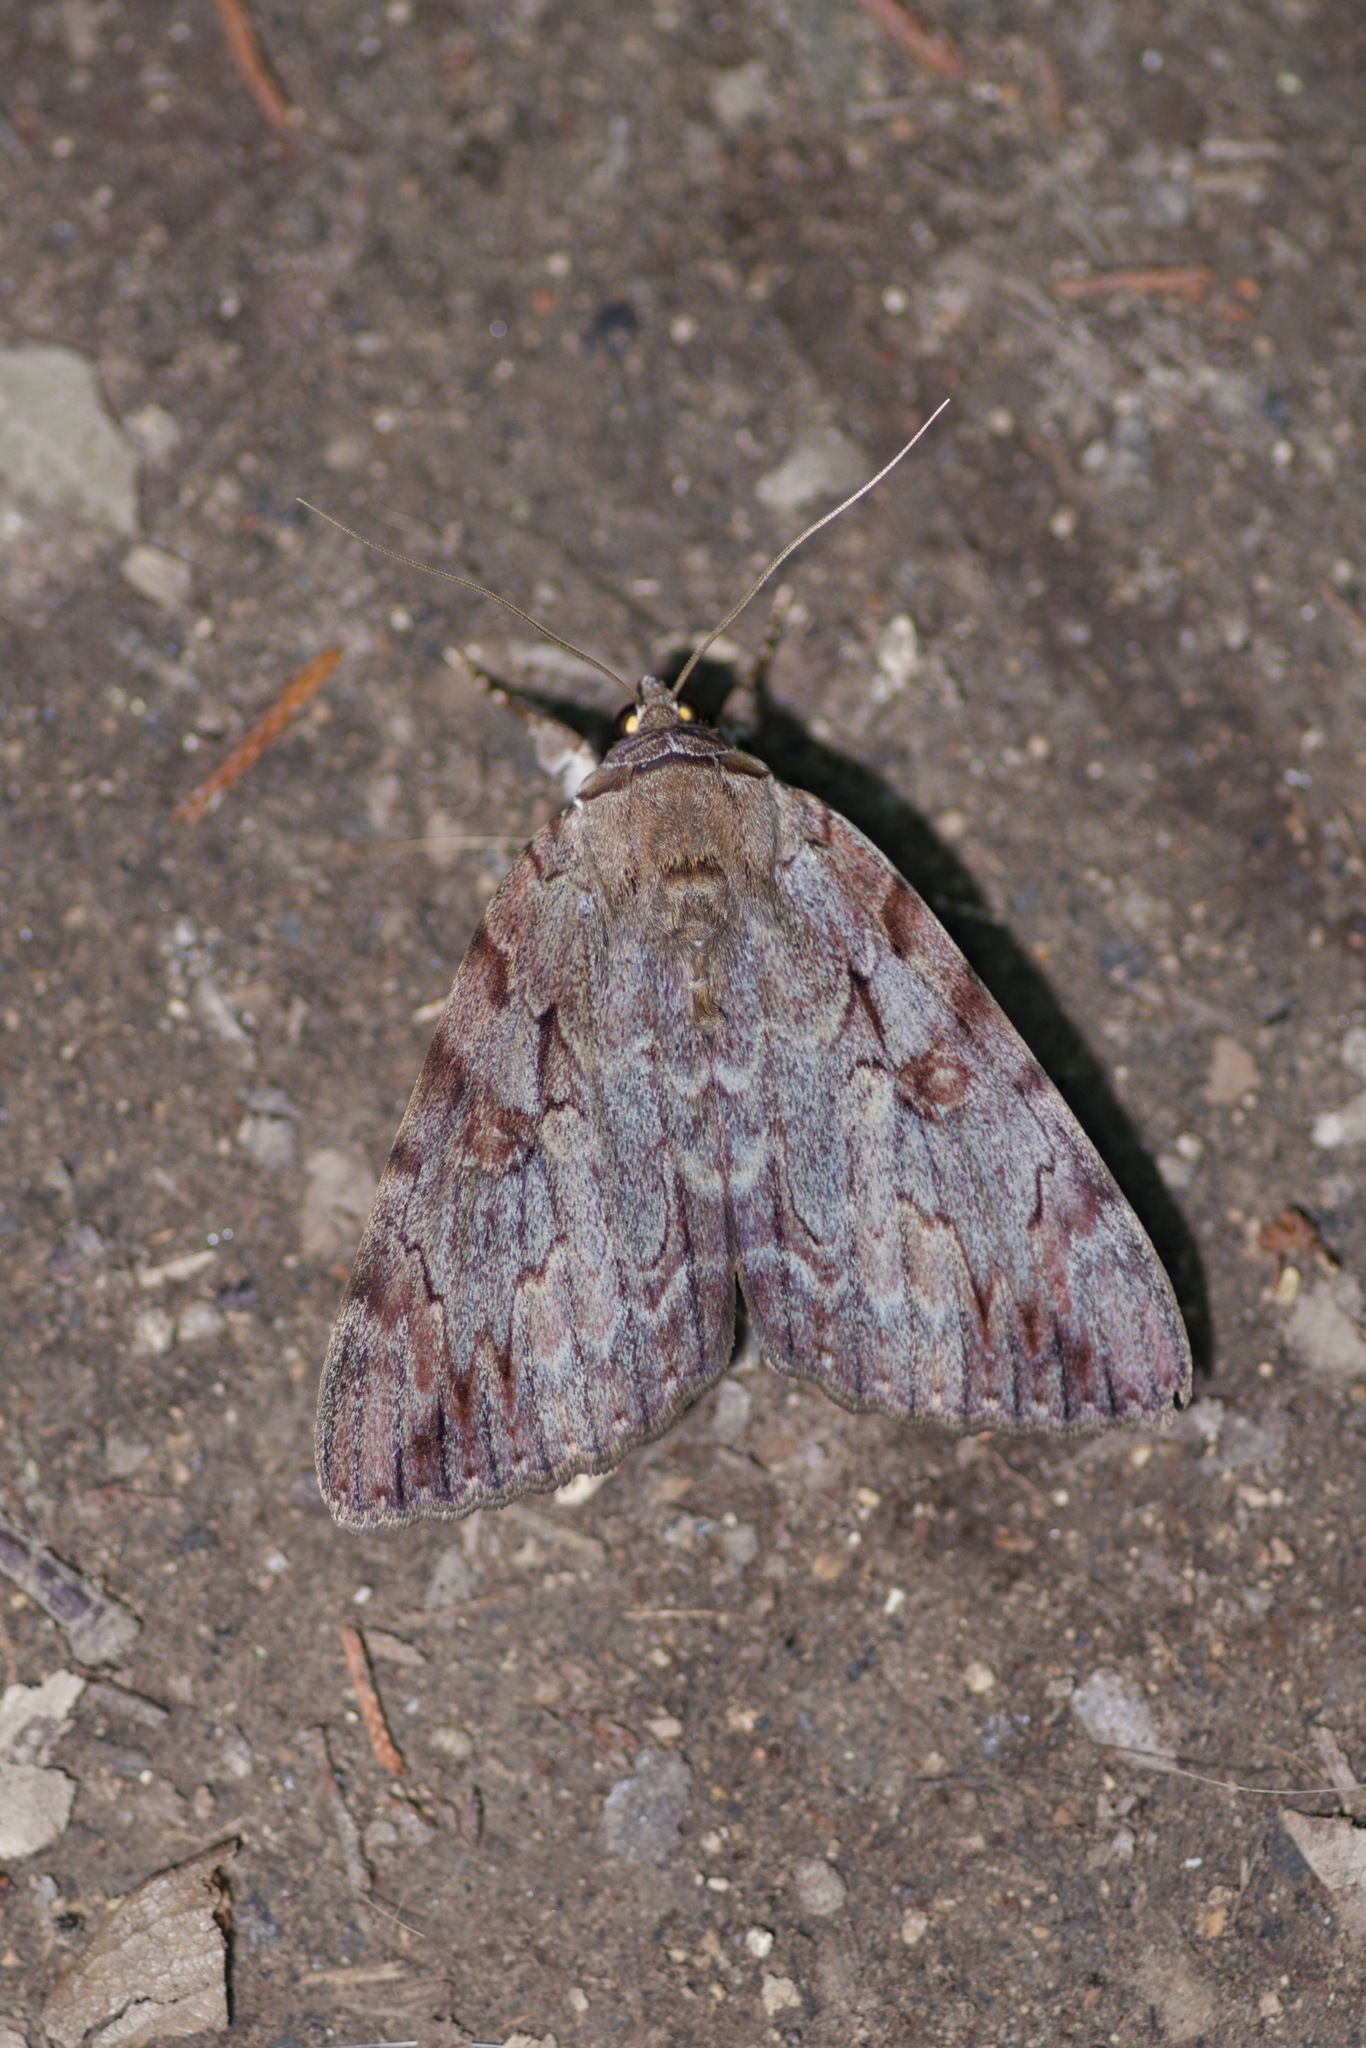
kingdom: Animalia
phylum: Arthropoda
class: Insecta
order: Lepidoptera
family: Erebidae
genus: Catocala
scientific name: Catocala agrippina
